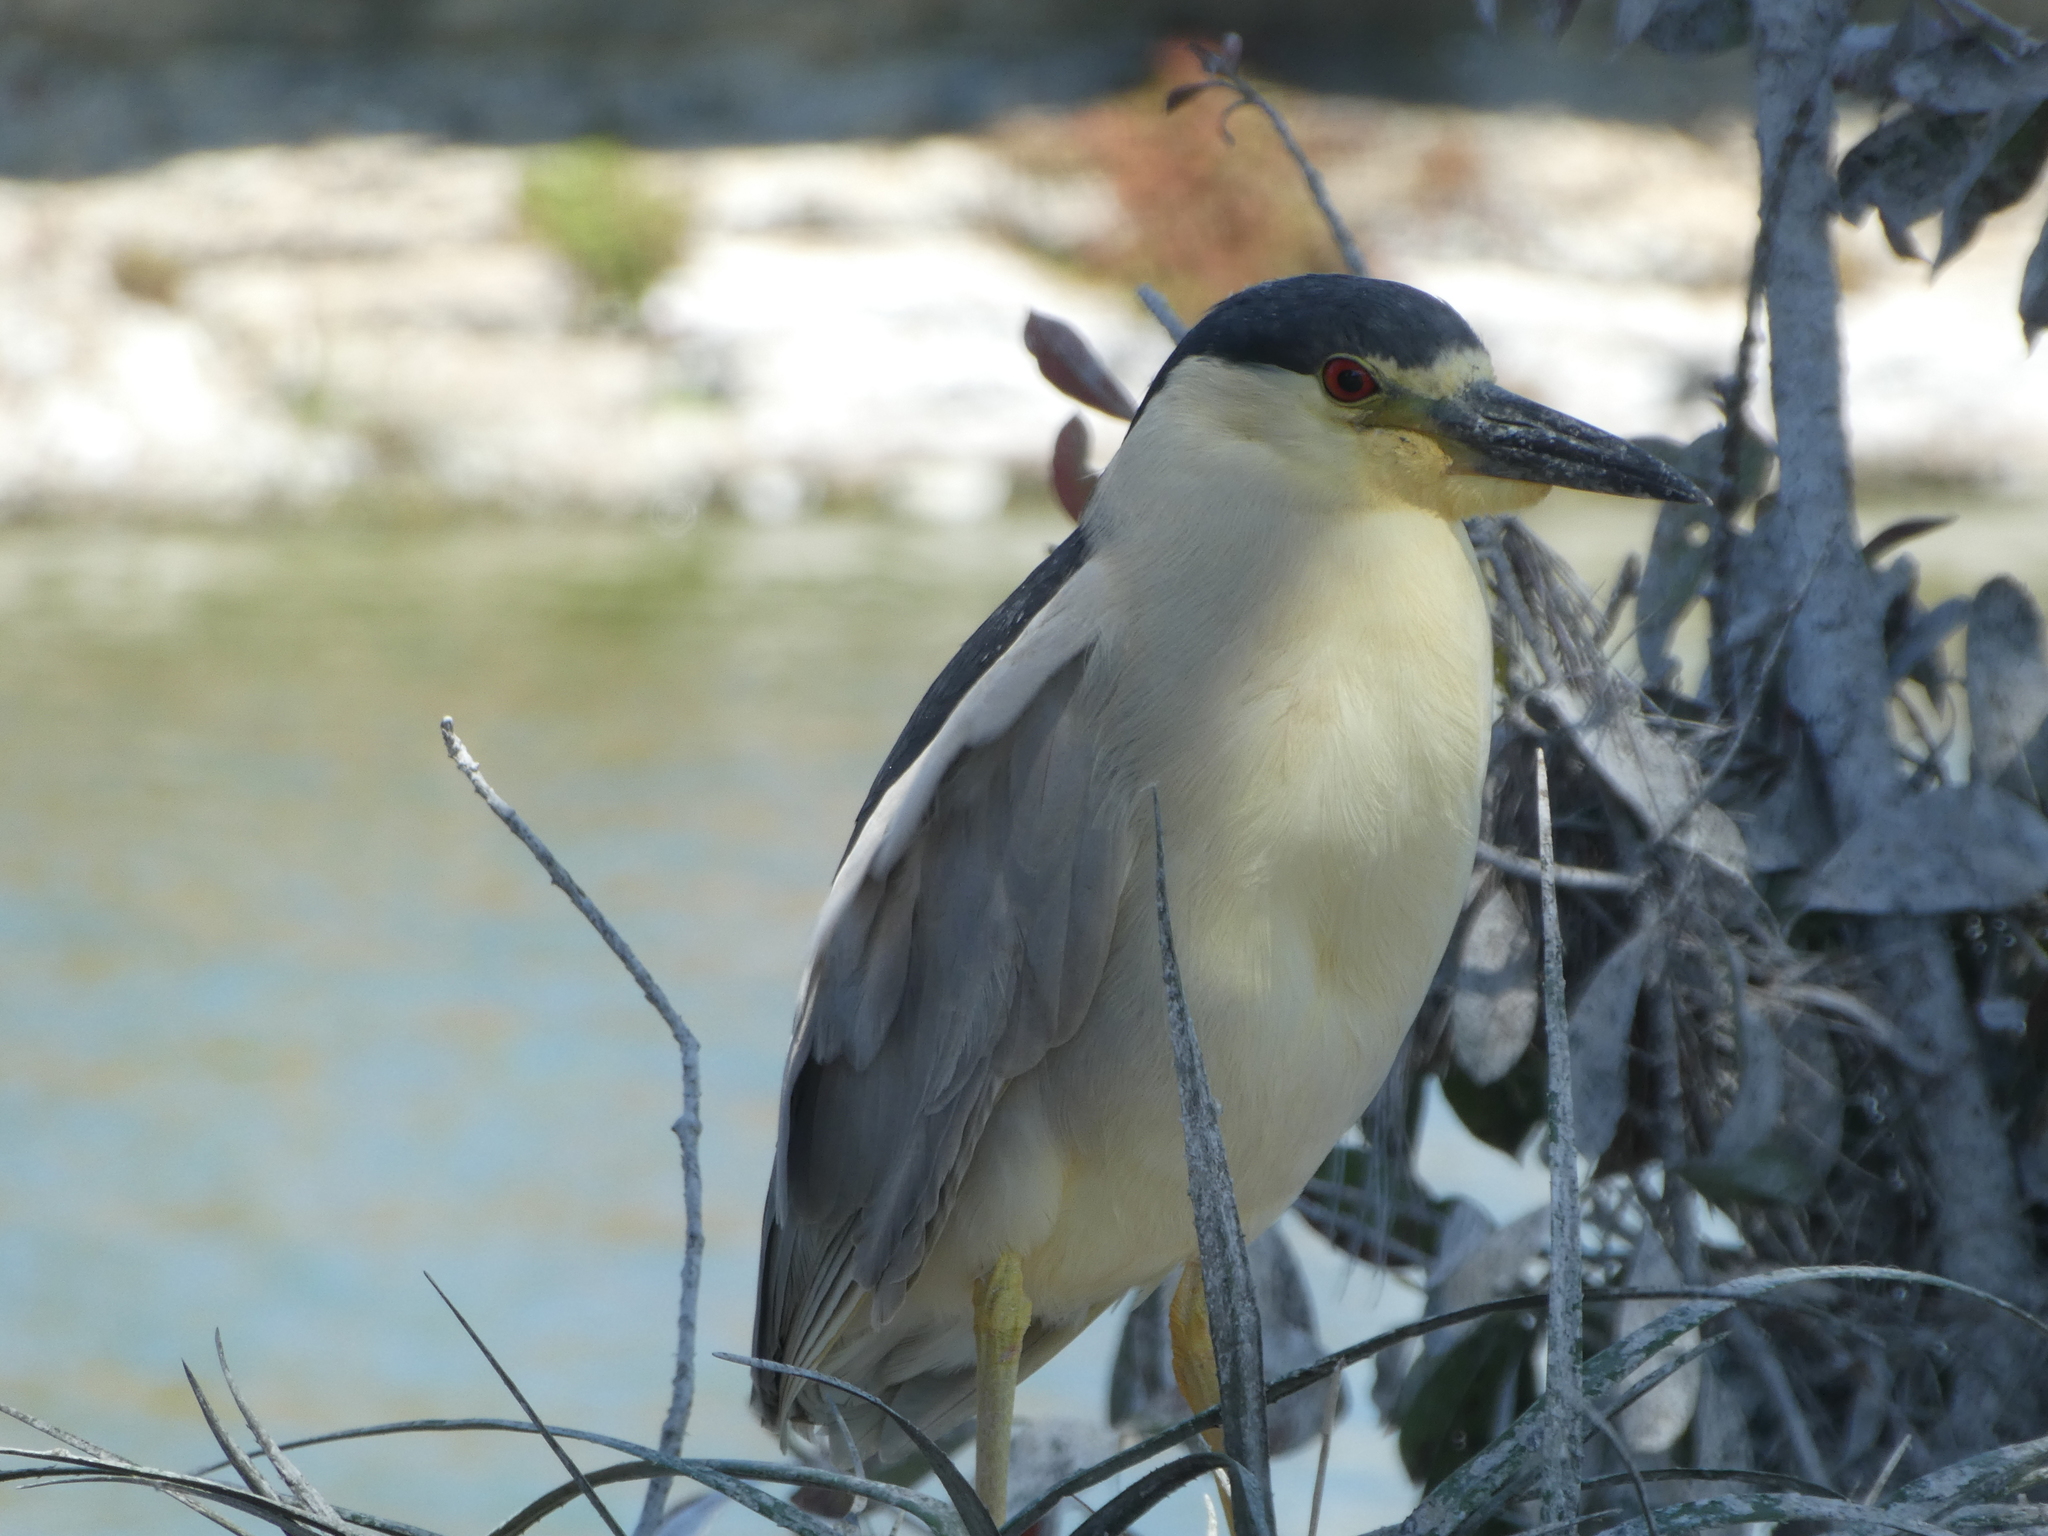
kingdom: Animalia
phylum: Chordata
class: Aves
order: Pelecaniformes
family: Ardeidae
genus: Nycticorax
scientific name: Nycticorax nycticorax
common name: Black-crowned night heron
